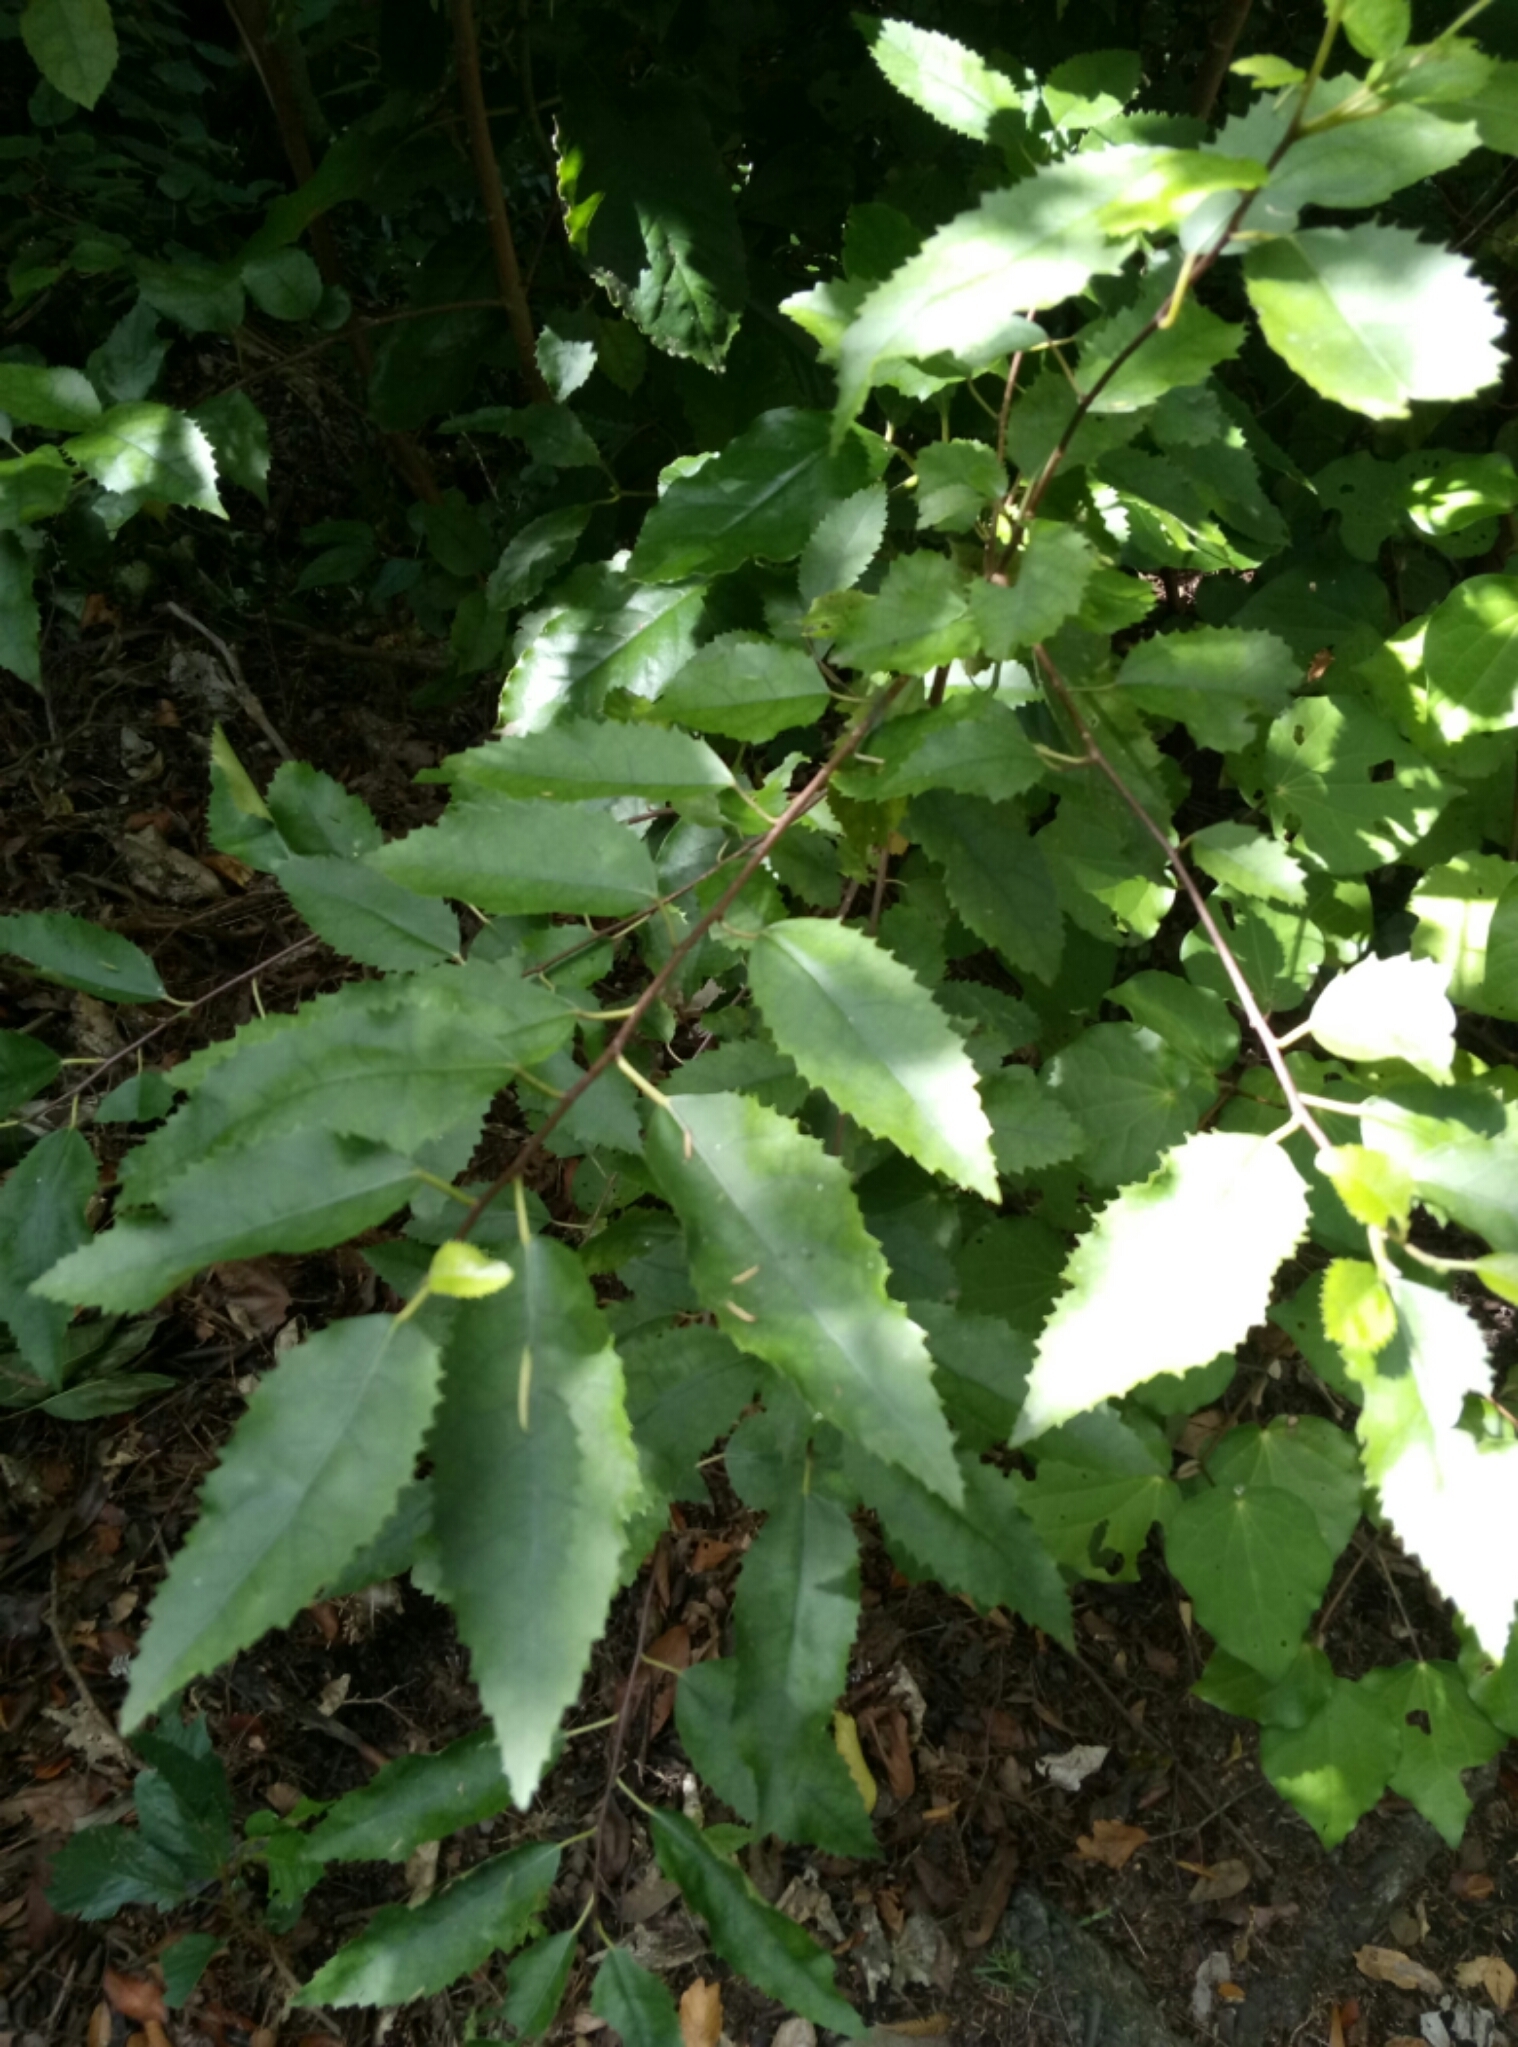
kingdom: Plantae
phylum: Tracheophyta
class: Magnoliopsida
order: Malvales
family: Malvaceae
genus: Hoheria
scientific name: Hoheria sexstylosa
